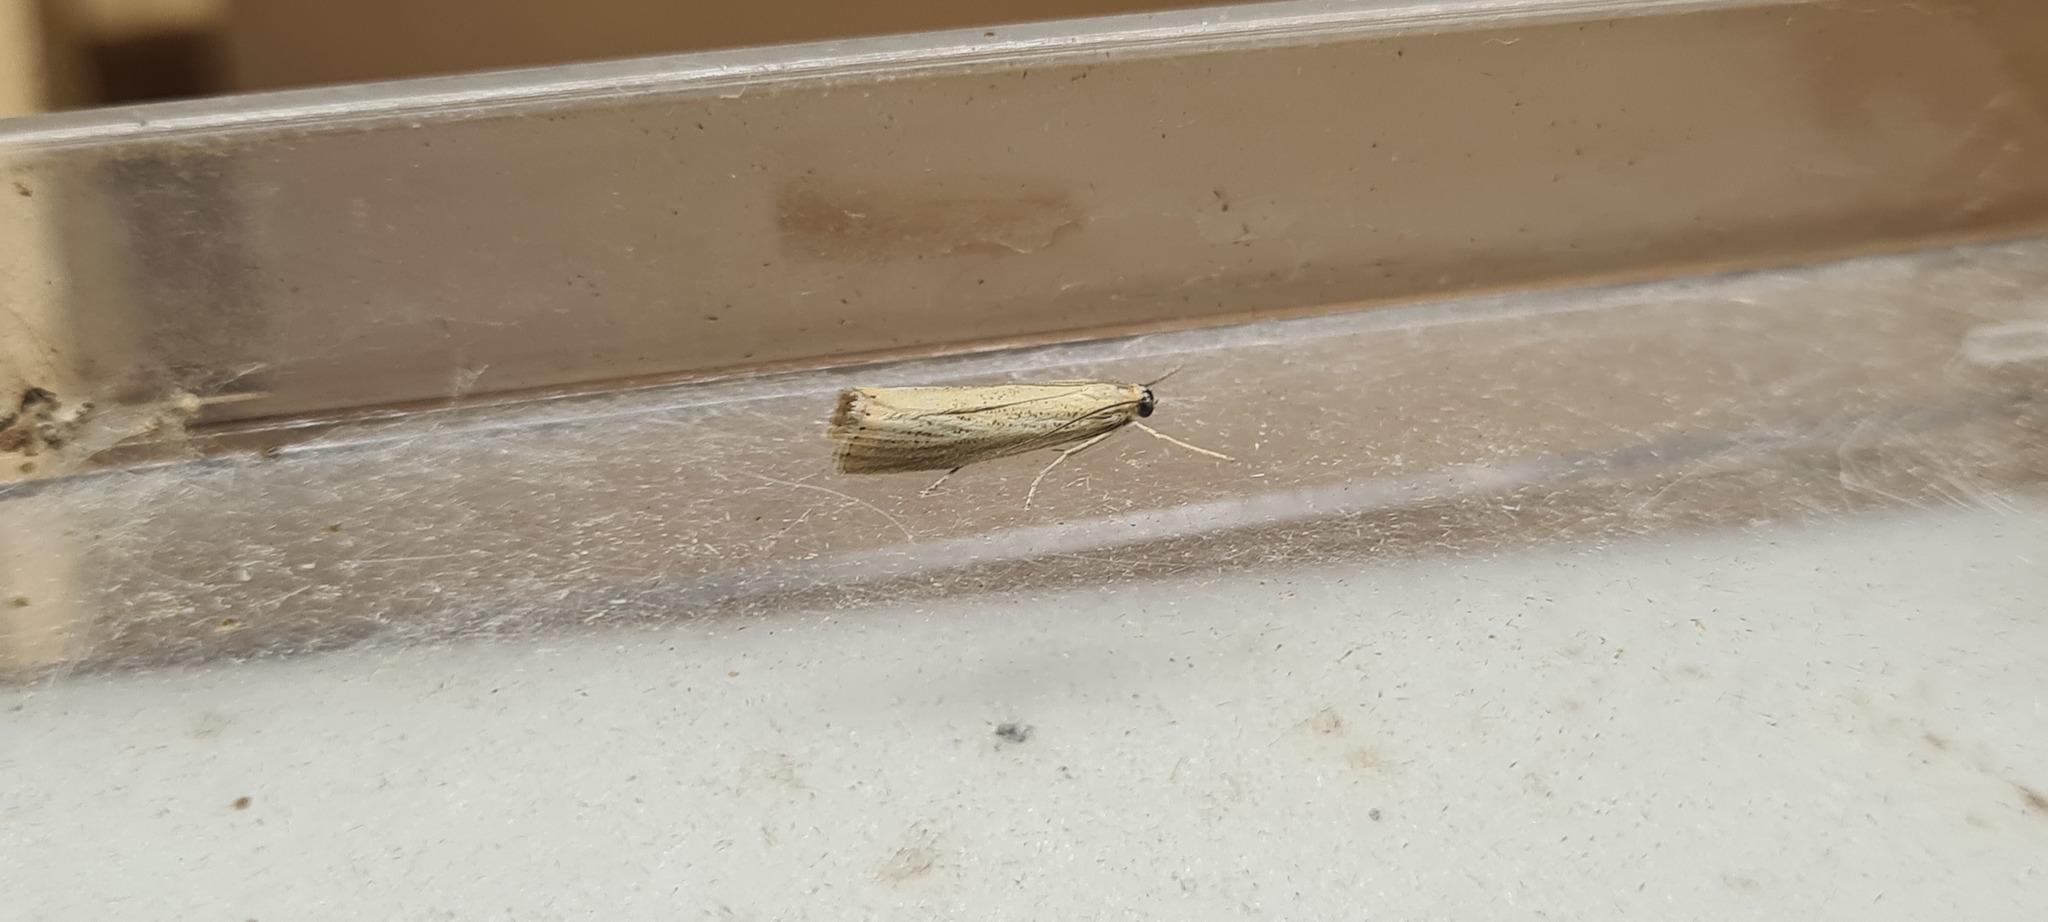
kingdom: Animalia
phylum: Arthropoda
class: Insecta
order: Lepidoptera
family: Crambidae
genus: Agriphila
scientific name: Agriphila straminella
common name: Straw grass-veneer
